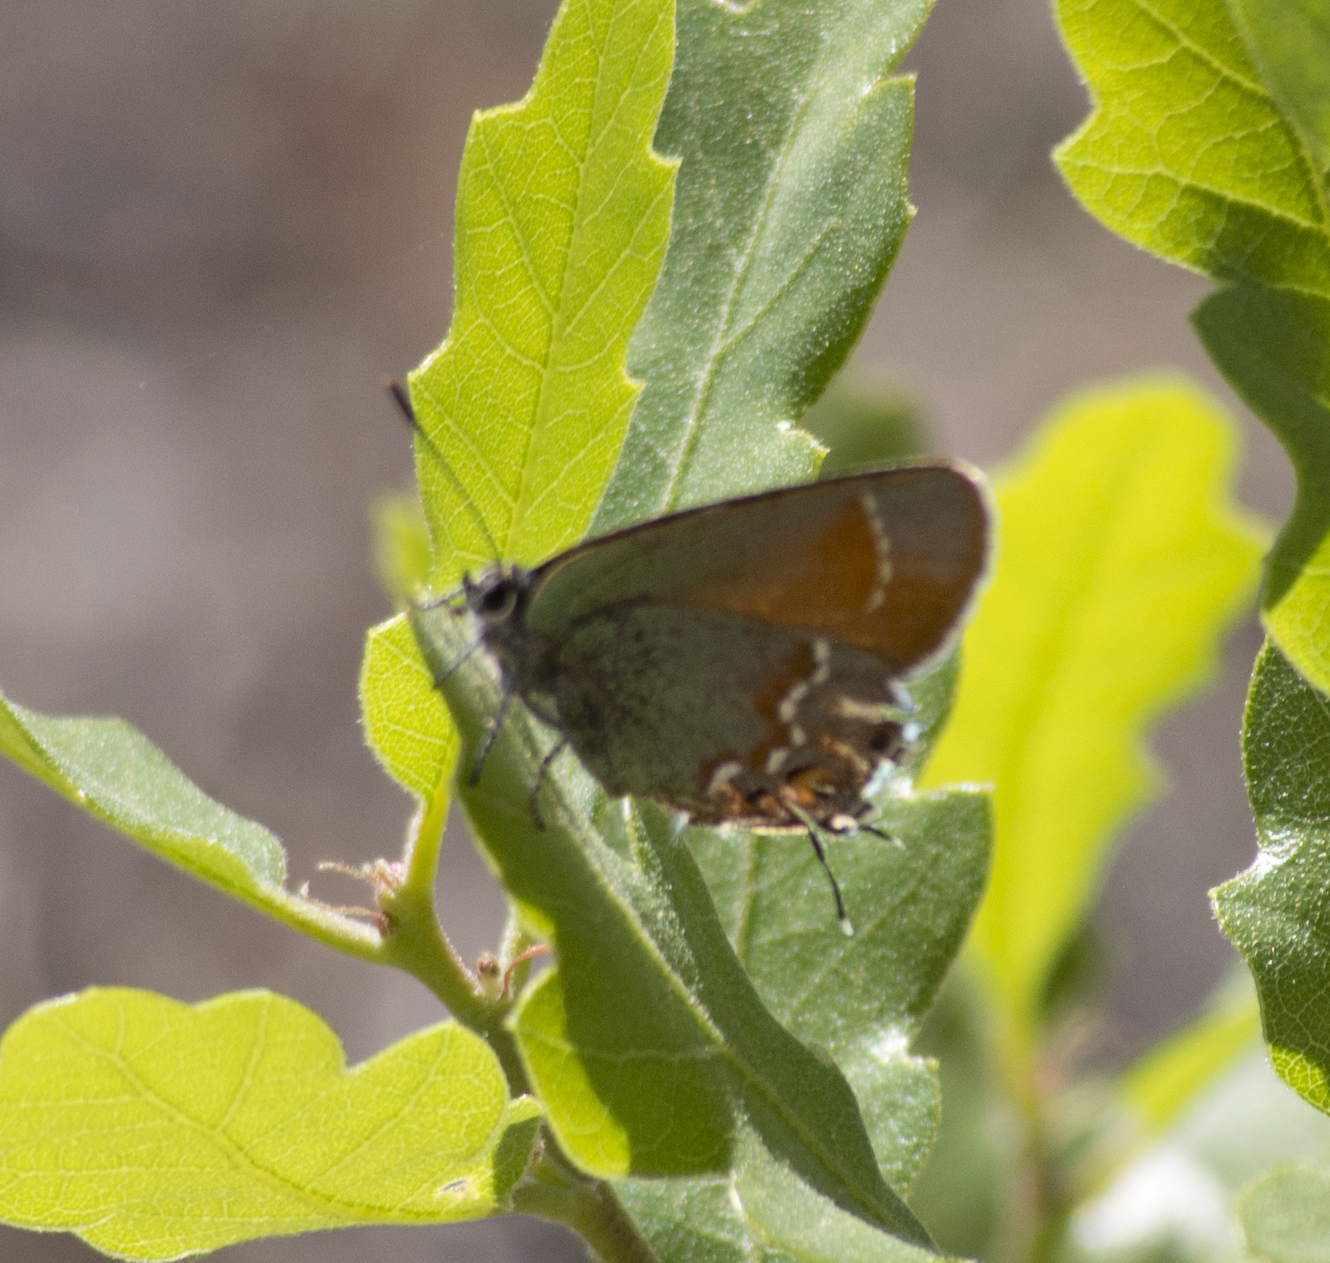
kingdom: Animalia
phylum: Arthropoda
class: Insecta
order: Lepidoptera
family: Lycaenidae
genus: Mitoura
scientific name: Mitoura siva
